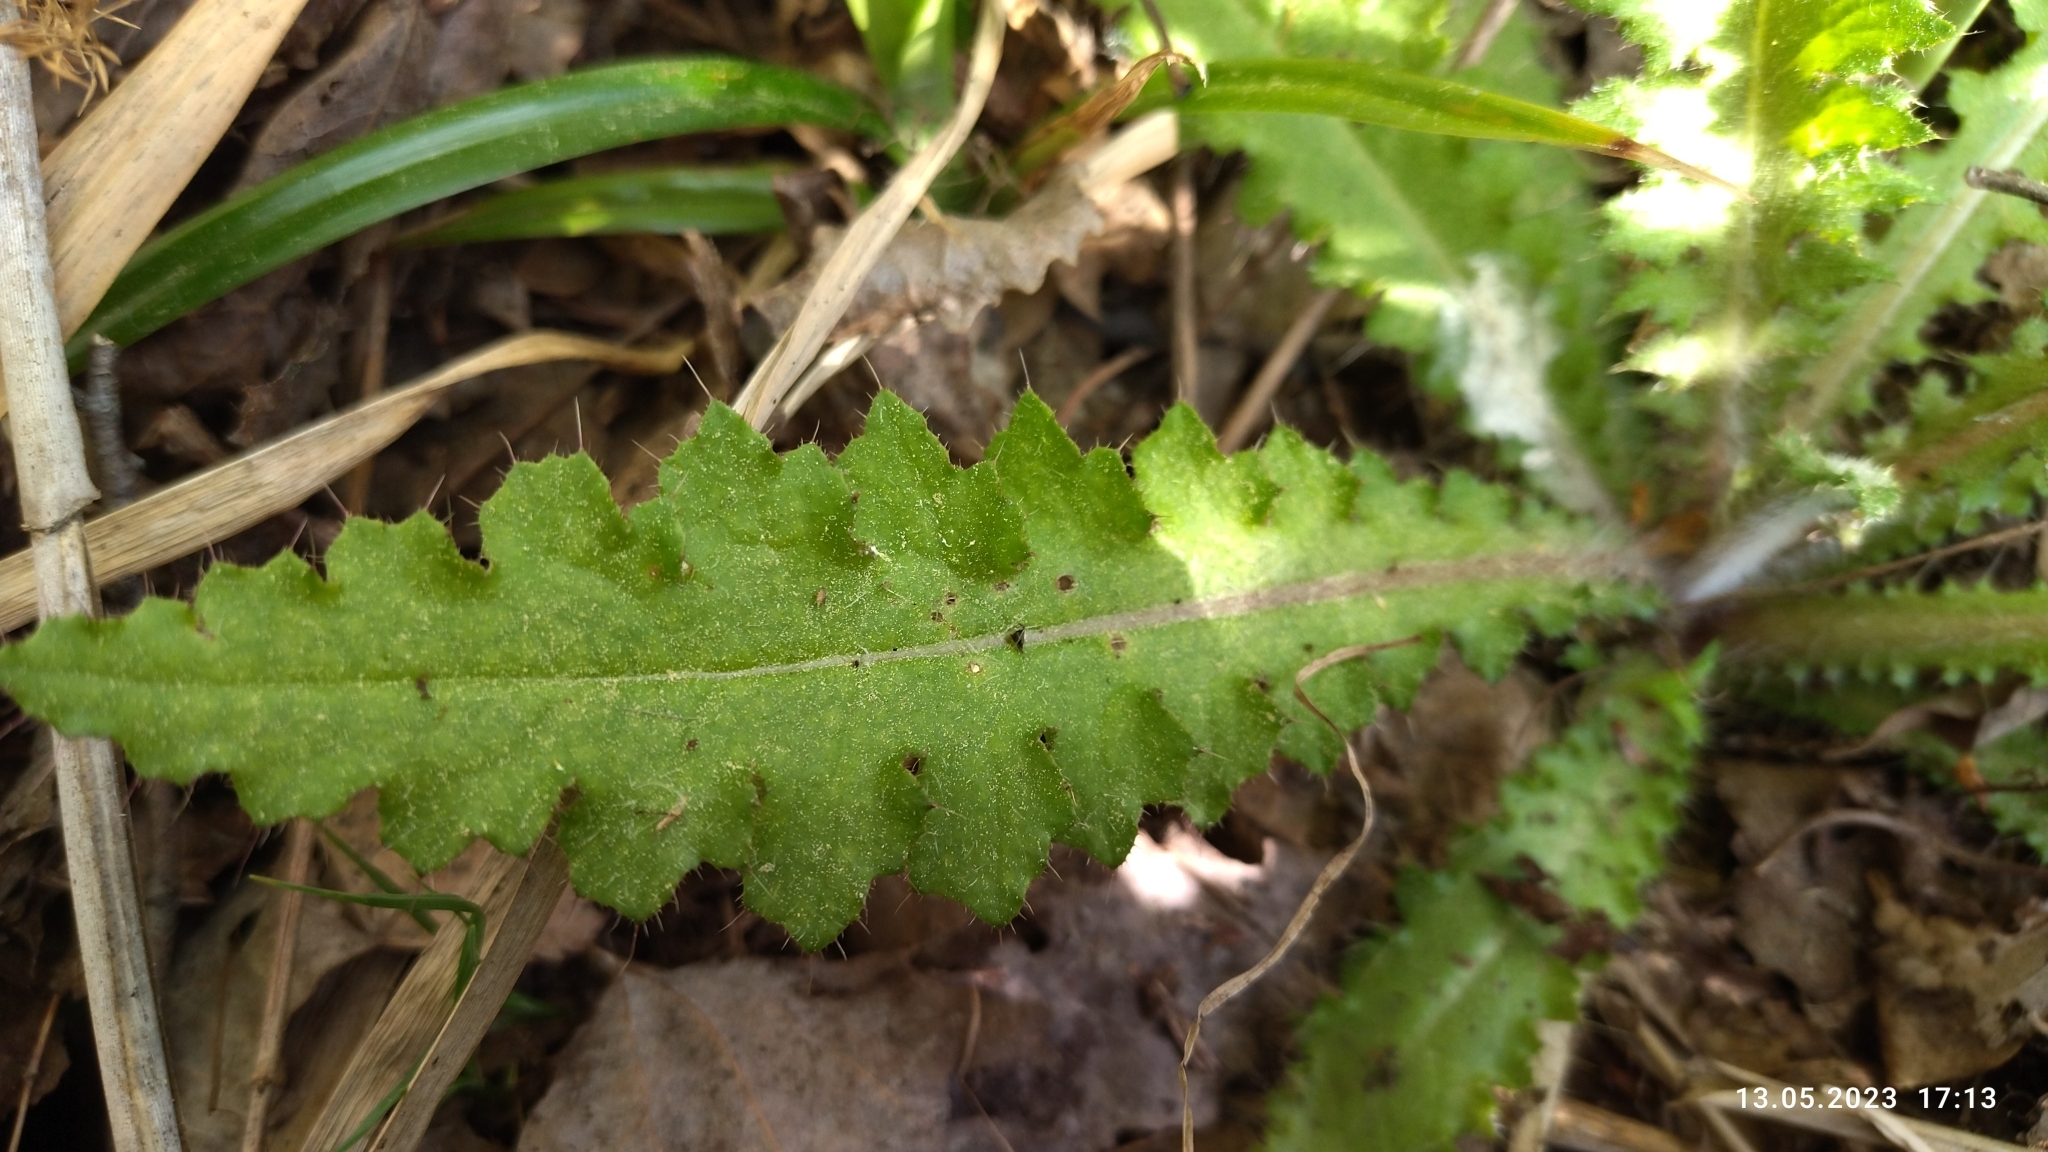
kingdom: Plantae
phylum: Tracheophyta
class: Magnoliopsida
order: Asterales
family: Asteraceae
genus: Cirsium
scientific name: Cirsium palustre
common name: Marsh thistle
